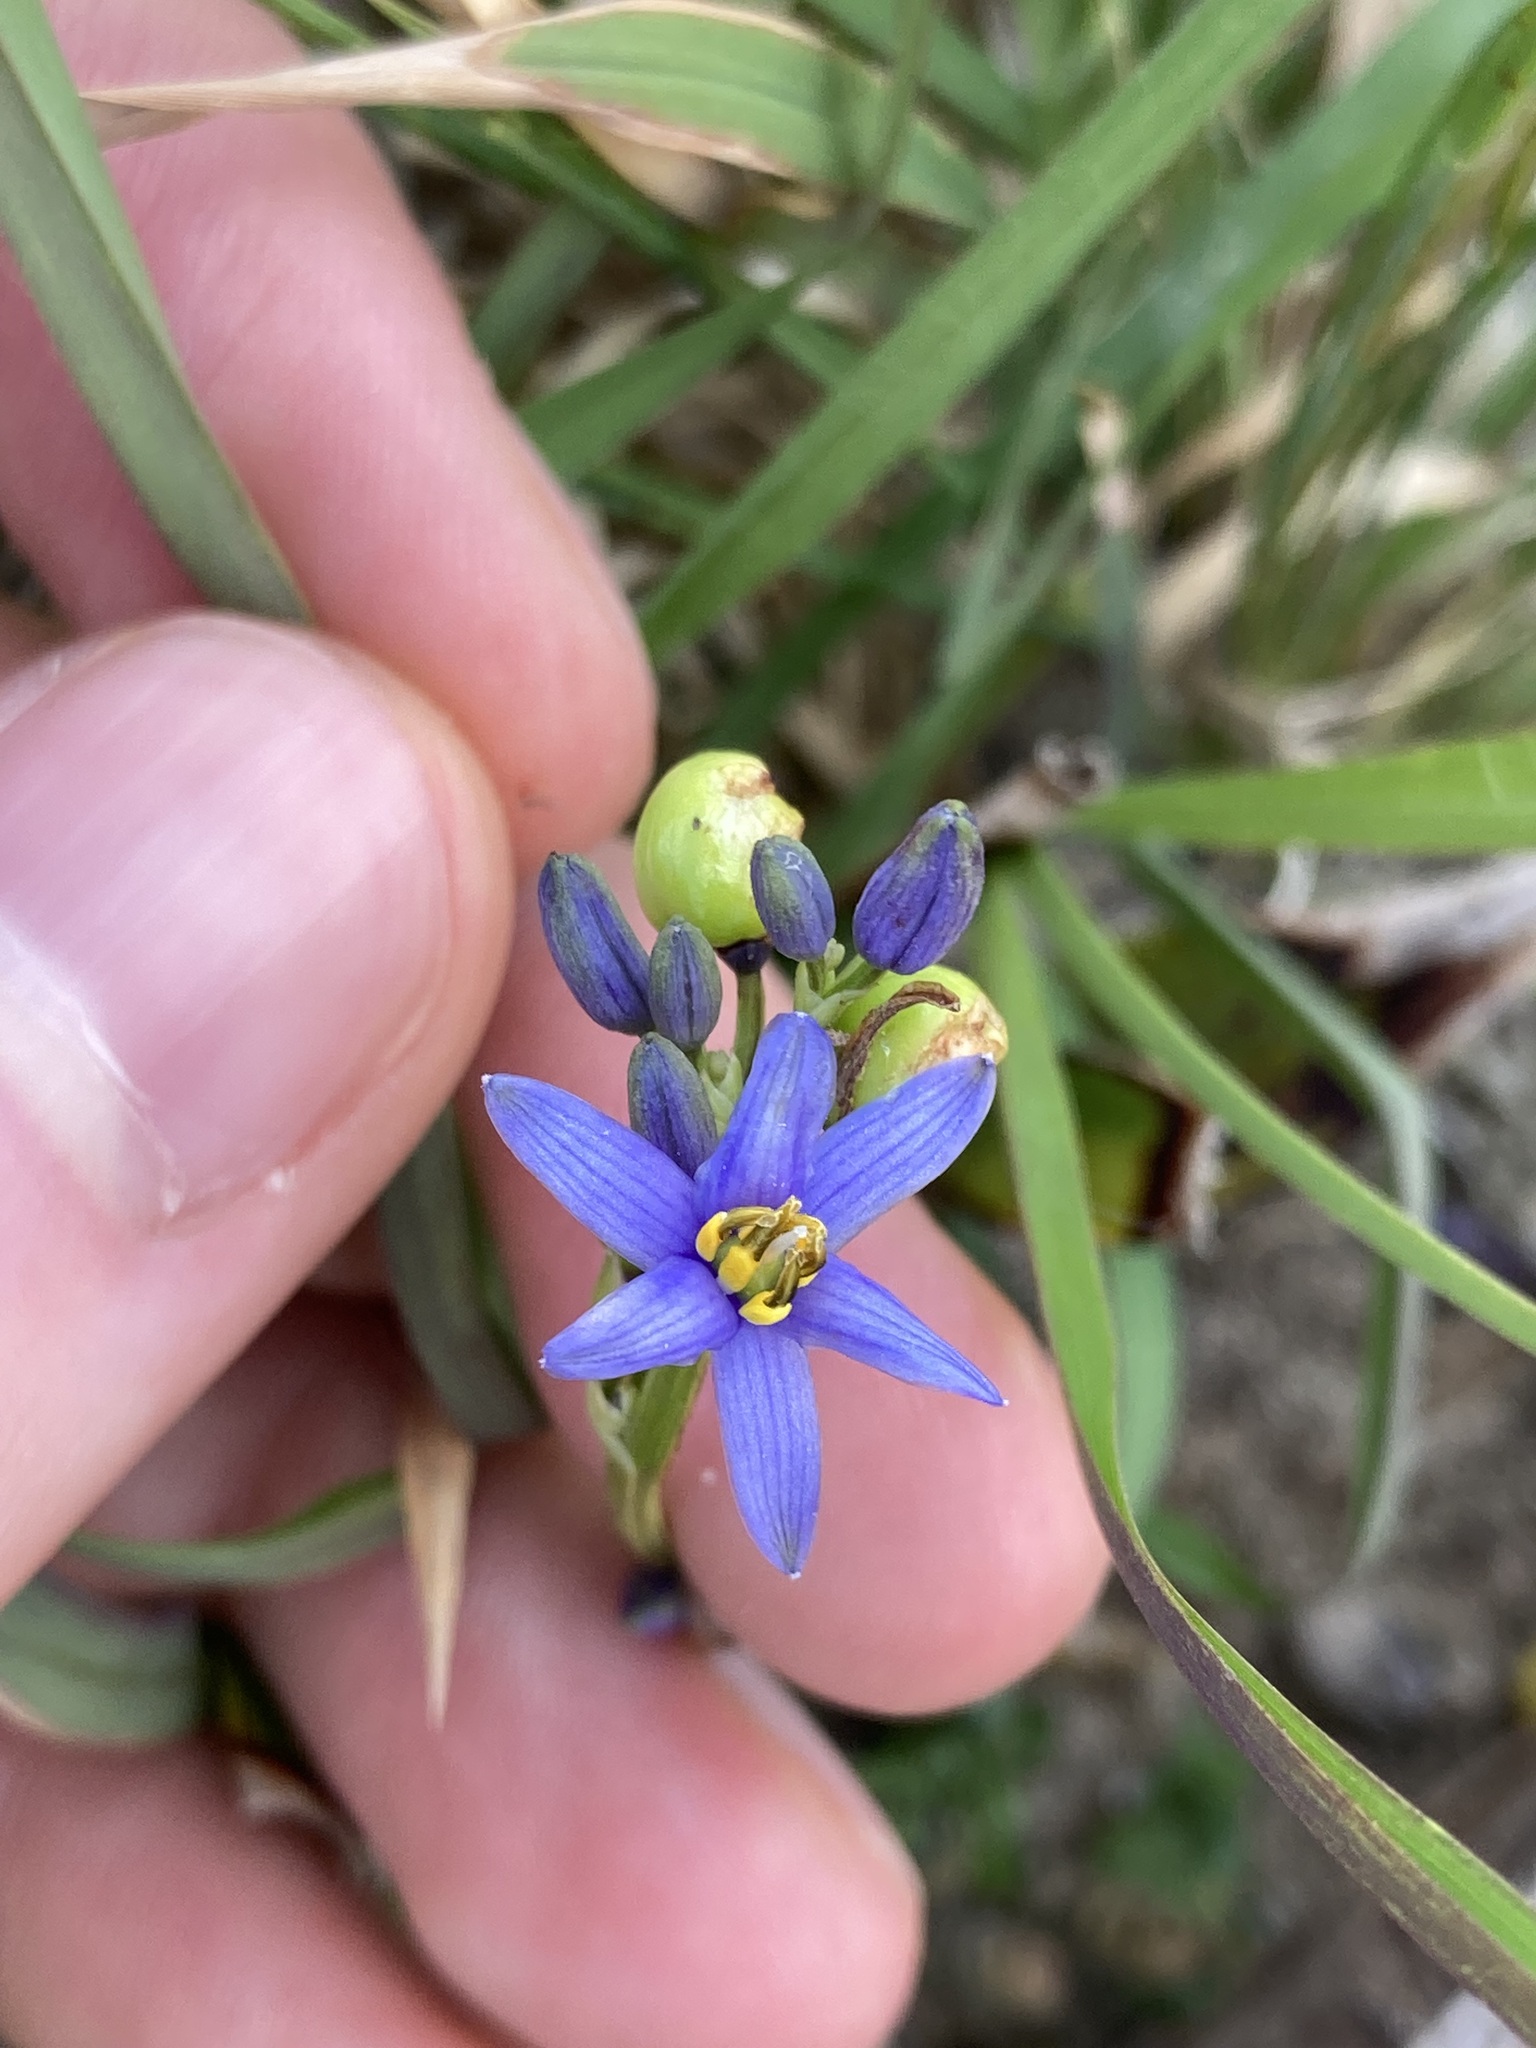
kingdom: Plantae
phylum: Tracheophyta
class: Liliopsida
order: Asparagales
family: Asphodelaceae
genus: Dianella
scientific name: Dianella congesta
